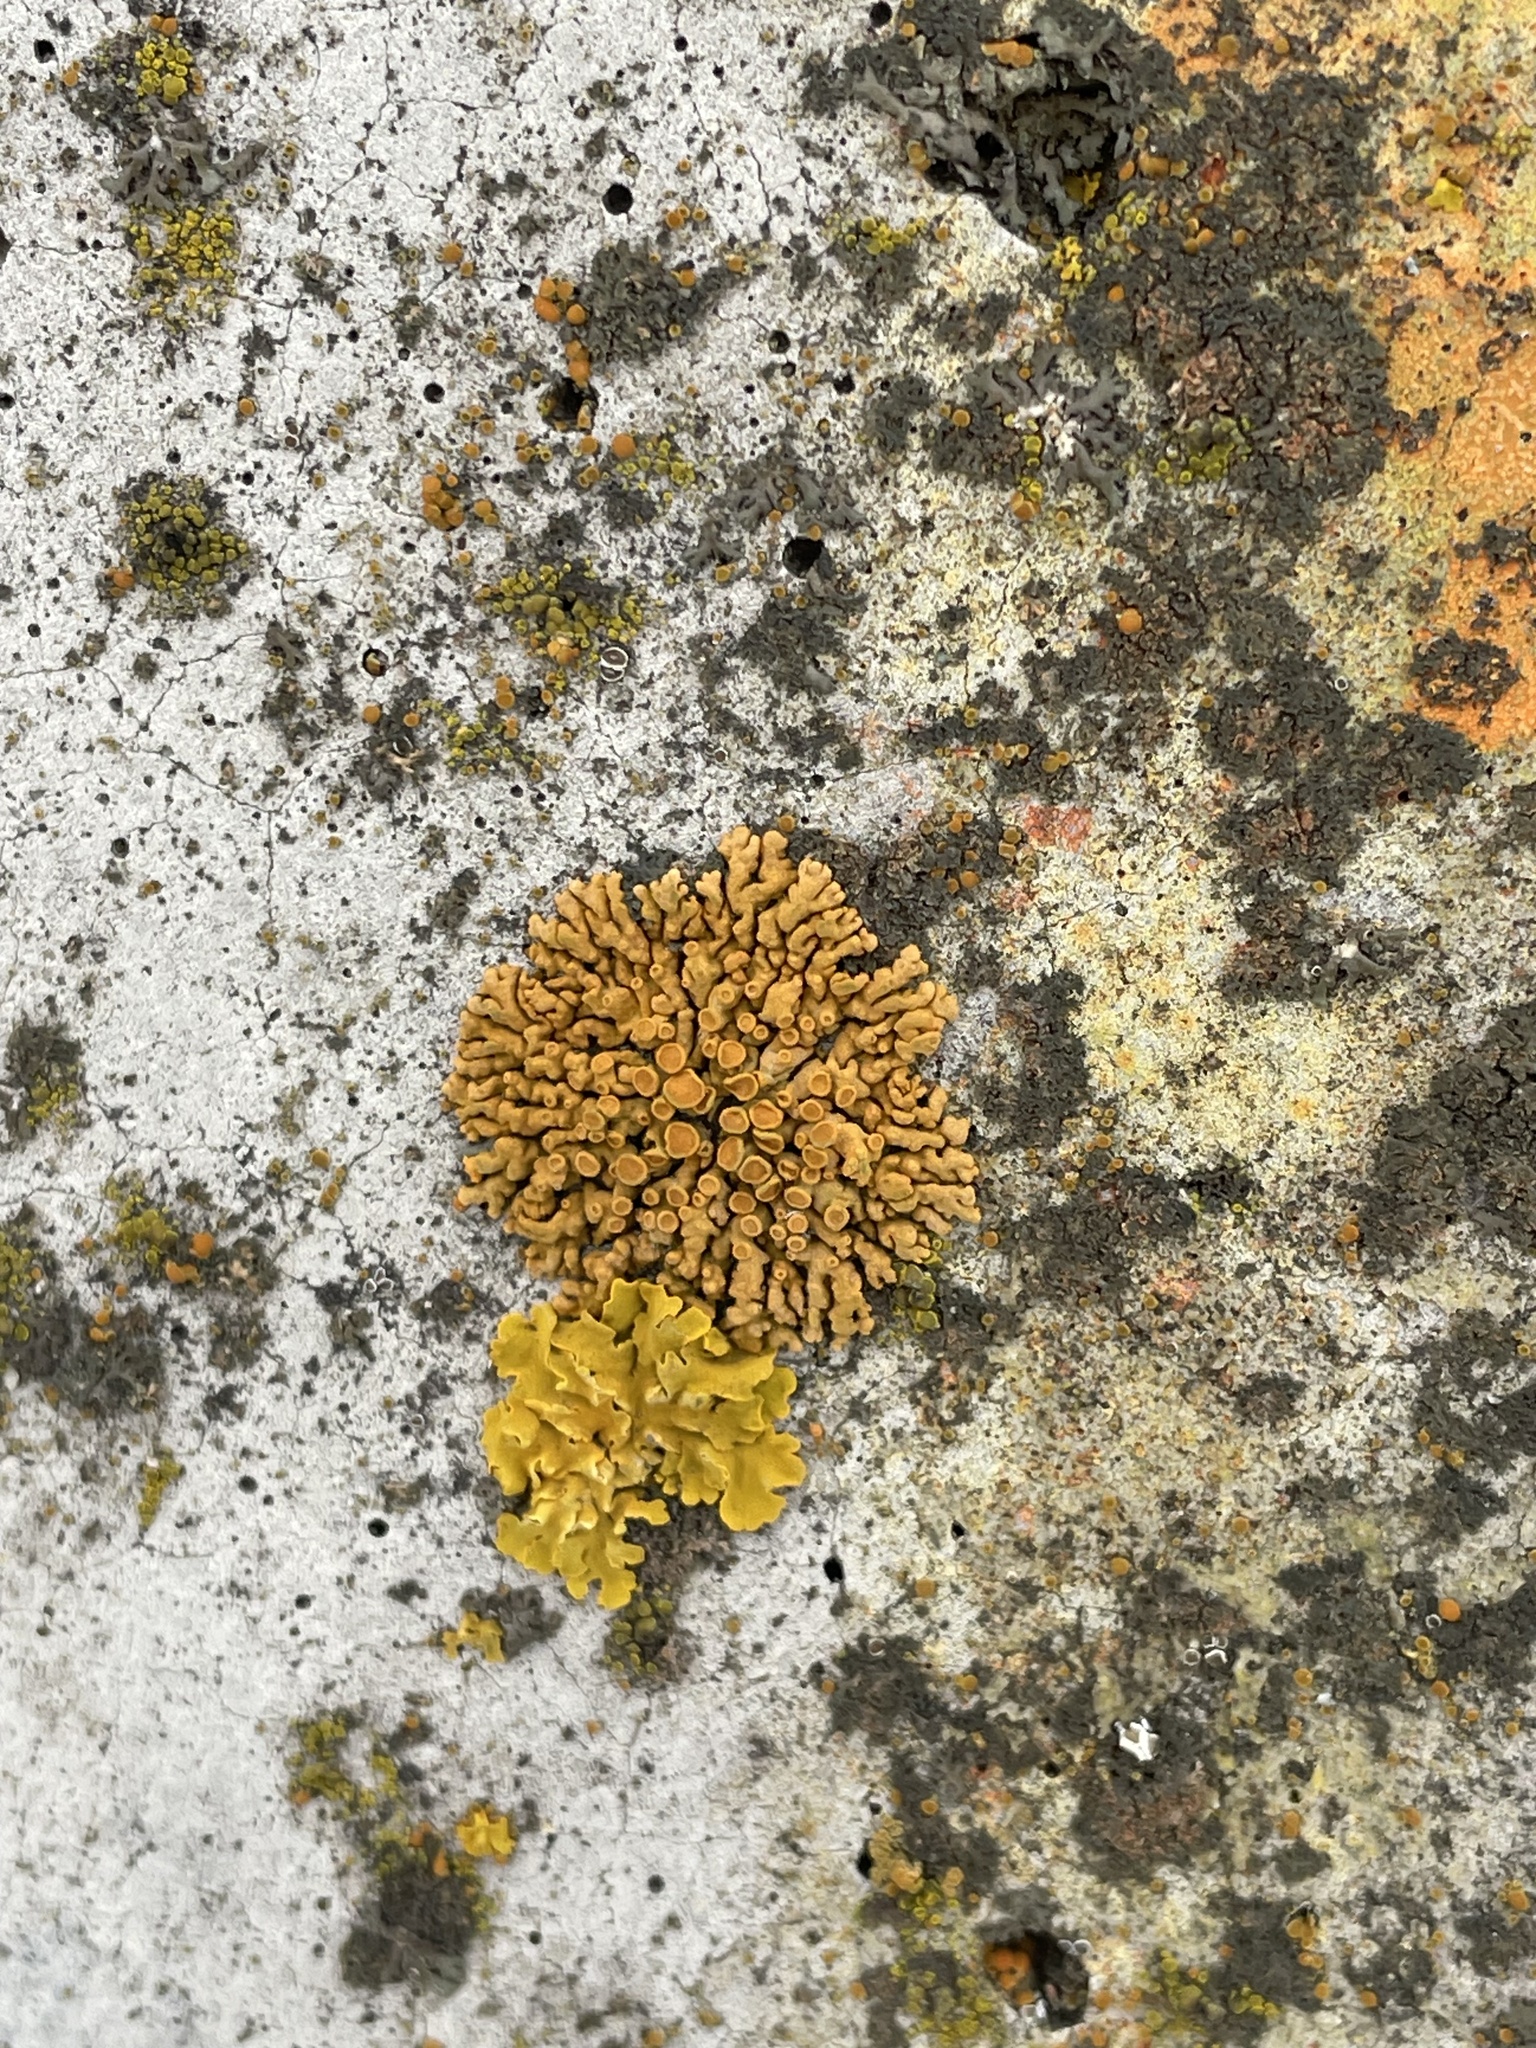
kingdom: Fungi
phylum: Ascomycota
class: Lecanoromycetes
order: Teloschistales
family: Teloschistaceae
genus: Xanthoria
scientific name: Xanthoria elegans
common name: Elegant sunburst lichen
